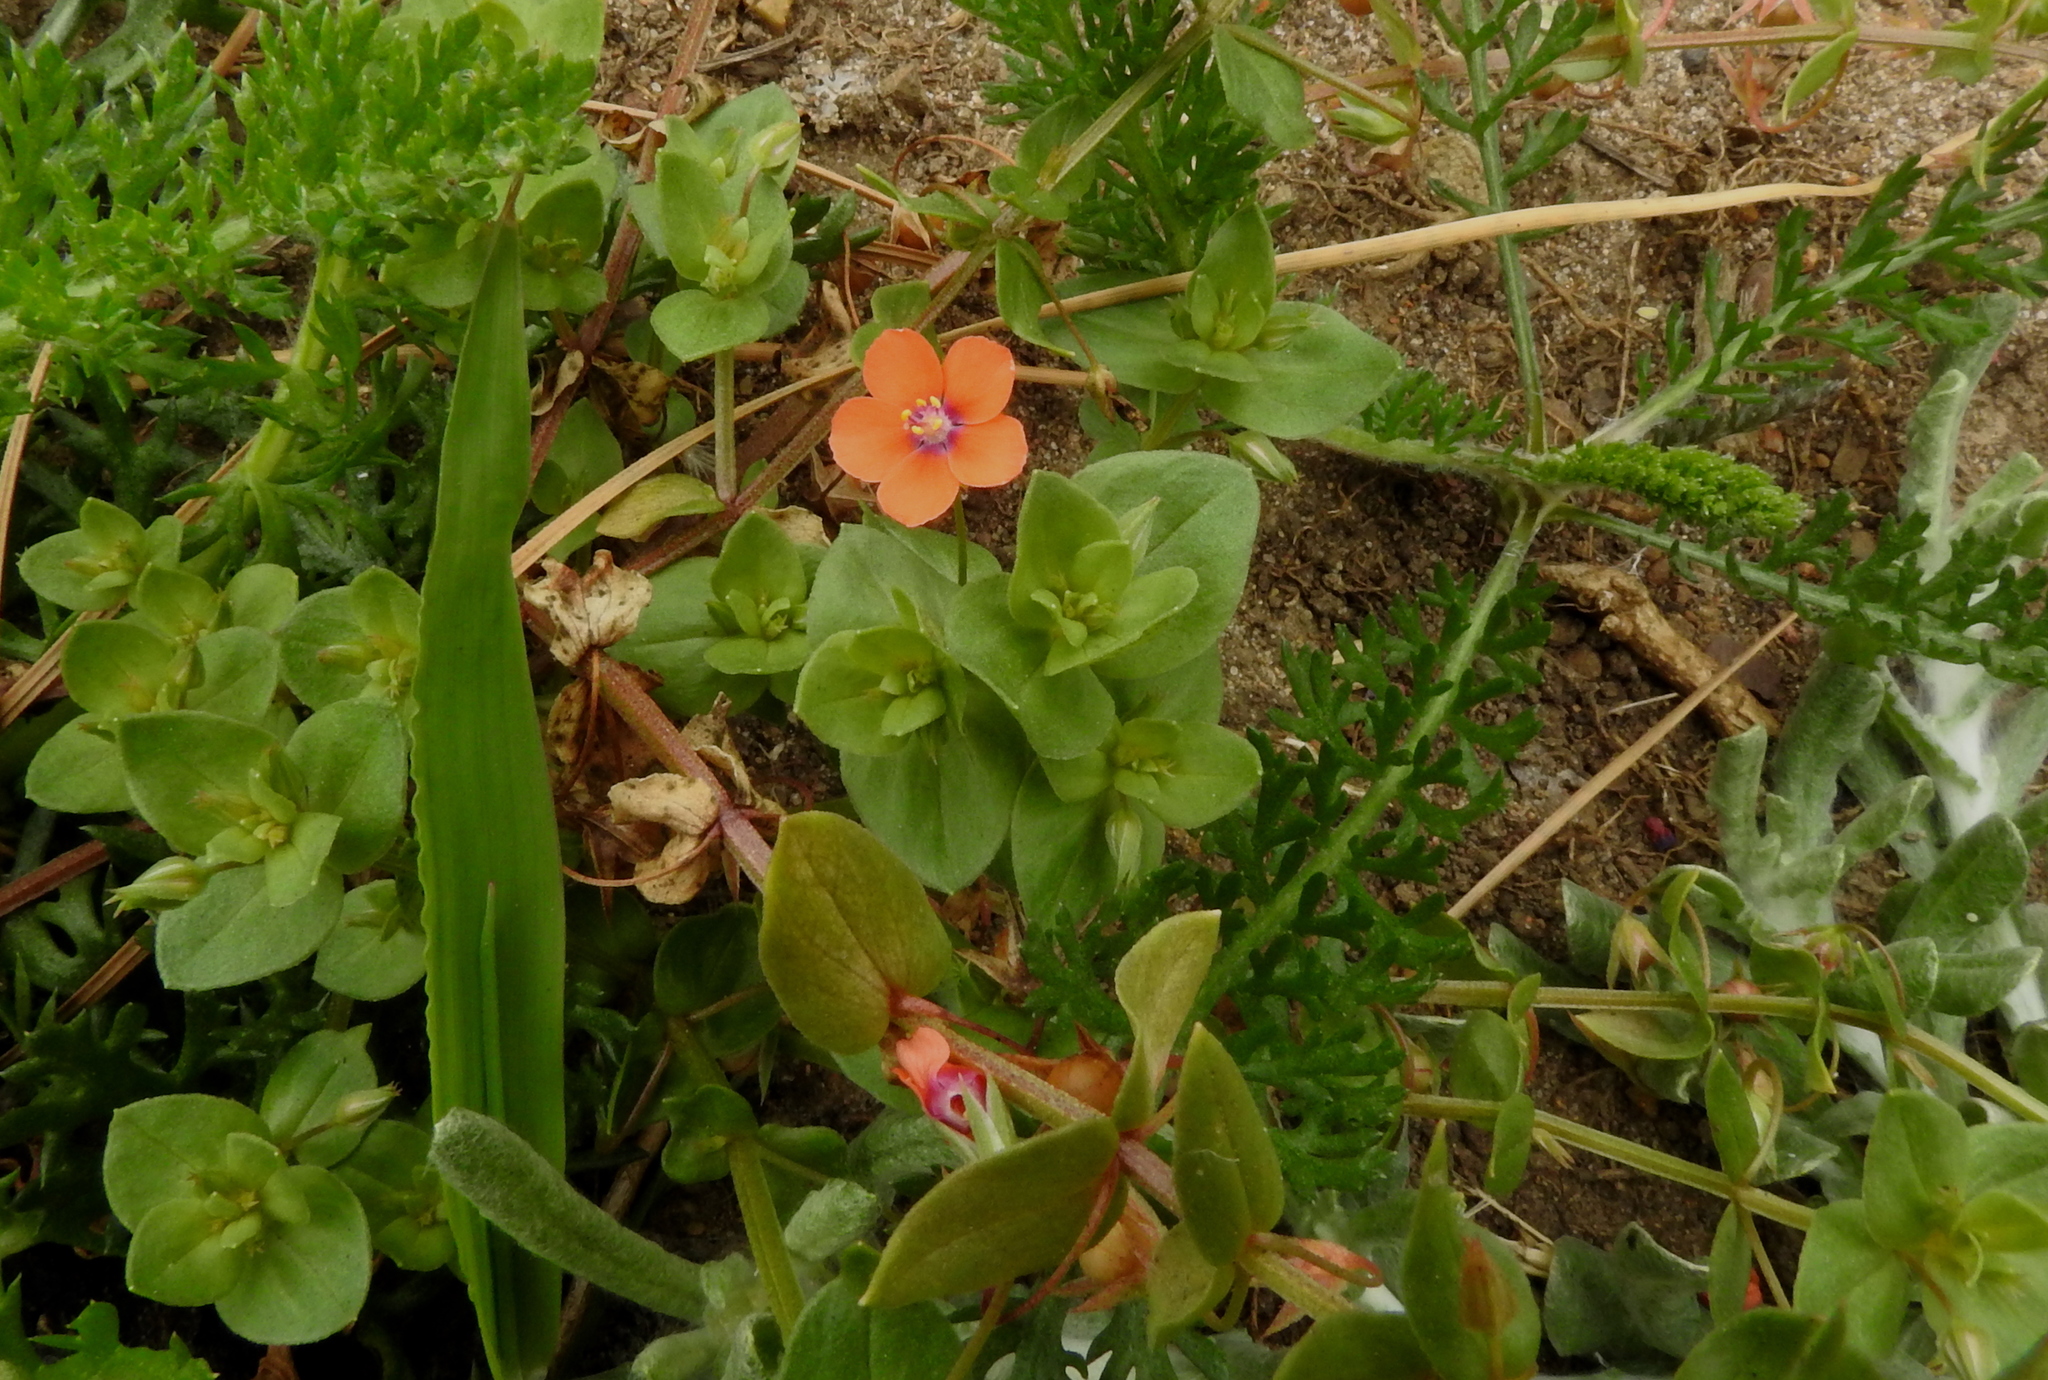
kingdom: Plantae
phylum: Tracheophyta
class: Magnoliopsida
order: Ericales
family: Primulaceae
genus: Lysimachia
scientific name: Lysimachia arvensis
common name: Scarlet pimpernel
